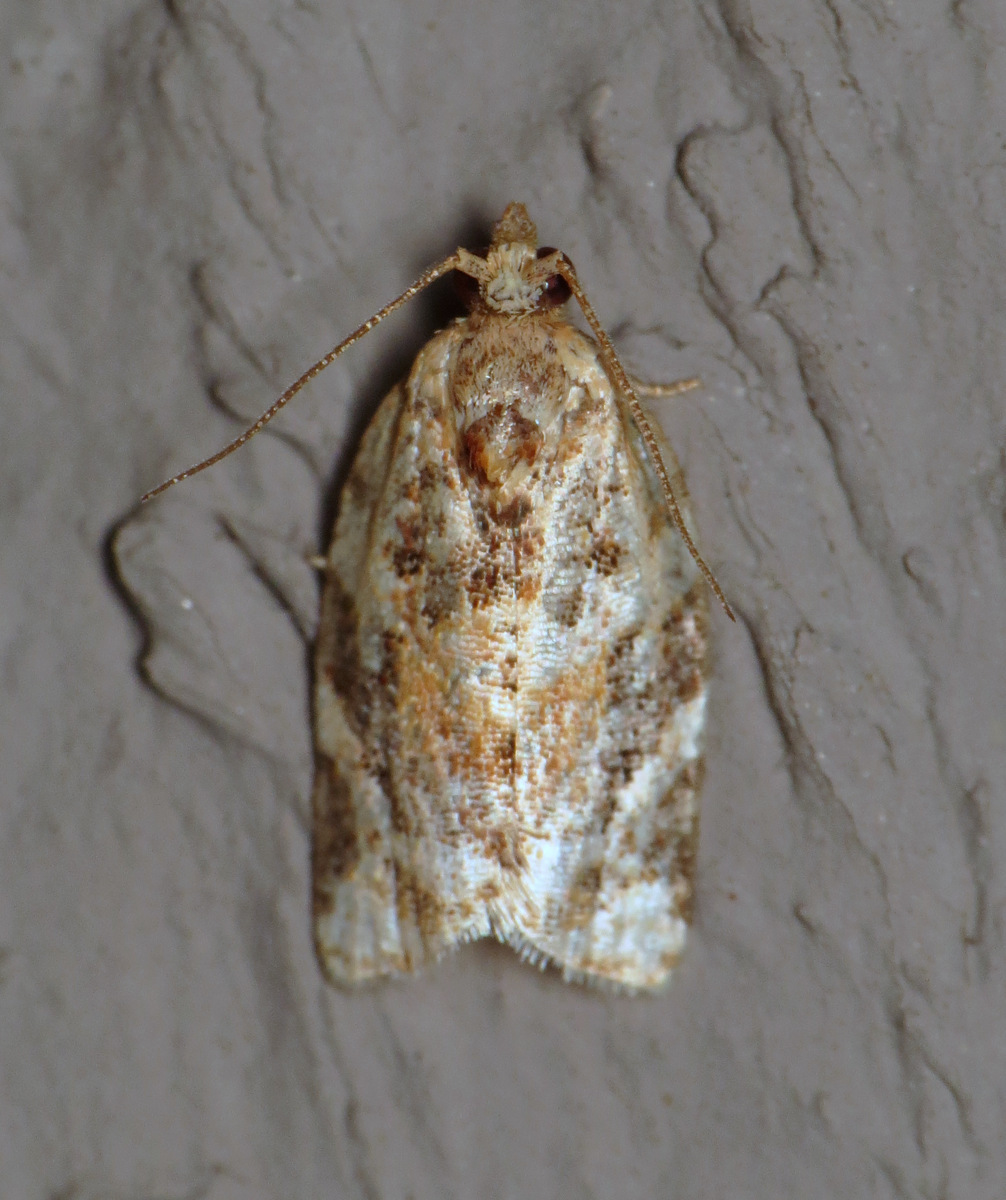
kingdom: Animalia
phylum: Arthropoda
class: Insecta
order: Lepidoptera
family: Tortricidae
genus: Argyrotaenia
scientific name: Argyrotaenia velutinana
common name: Red-banded leafroller moth
